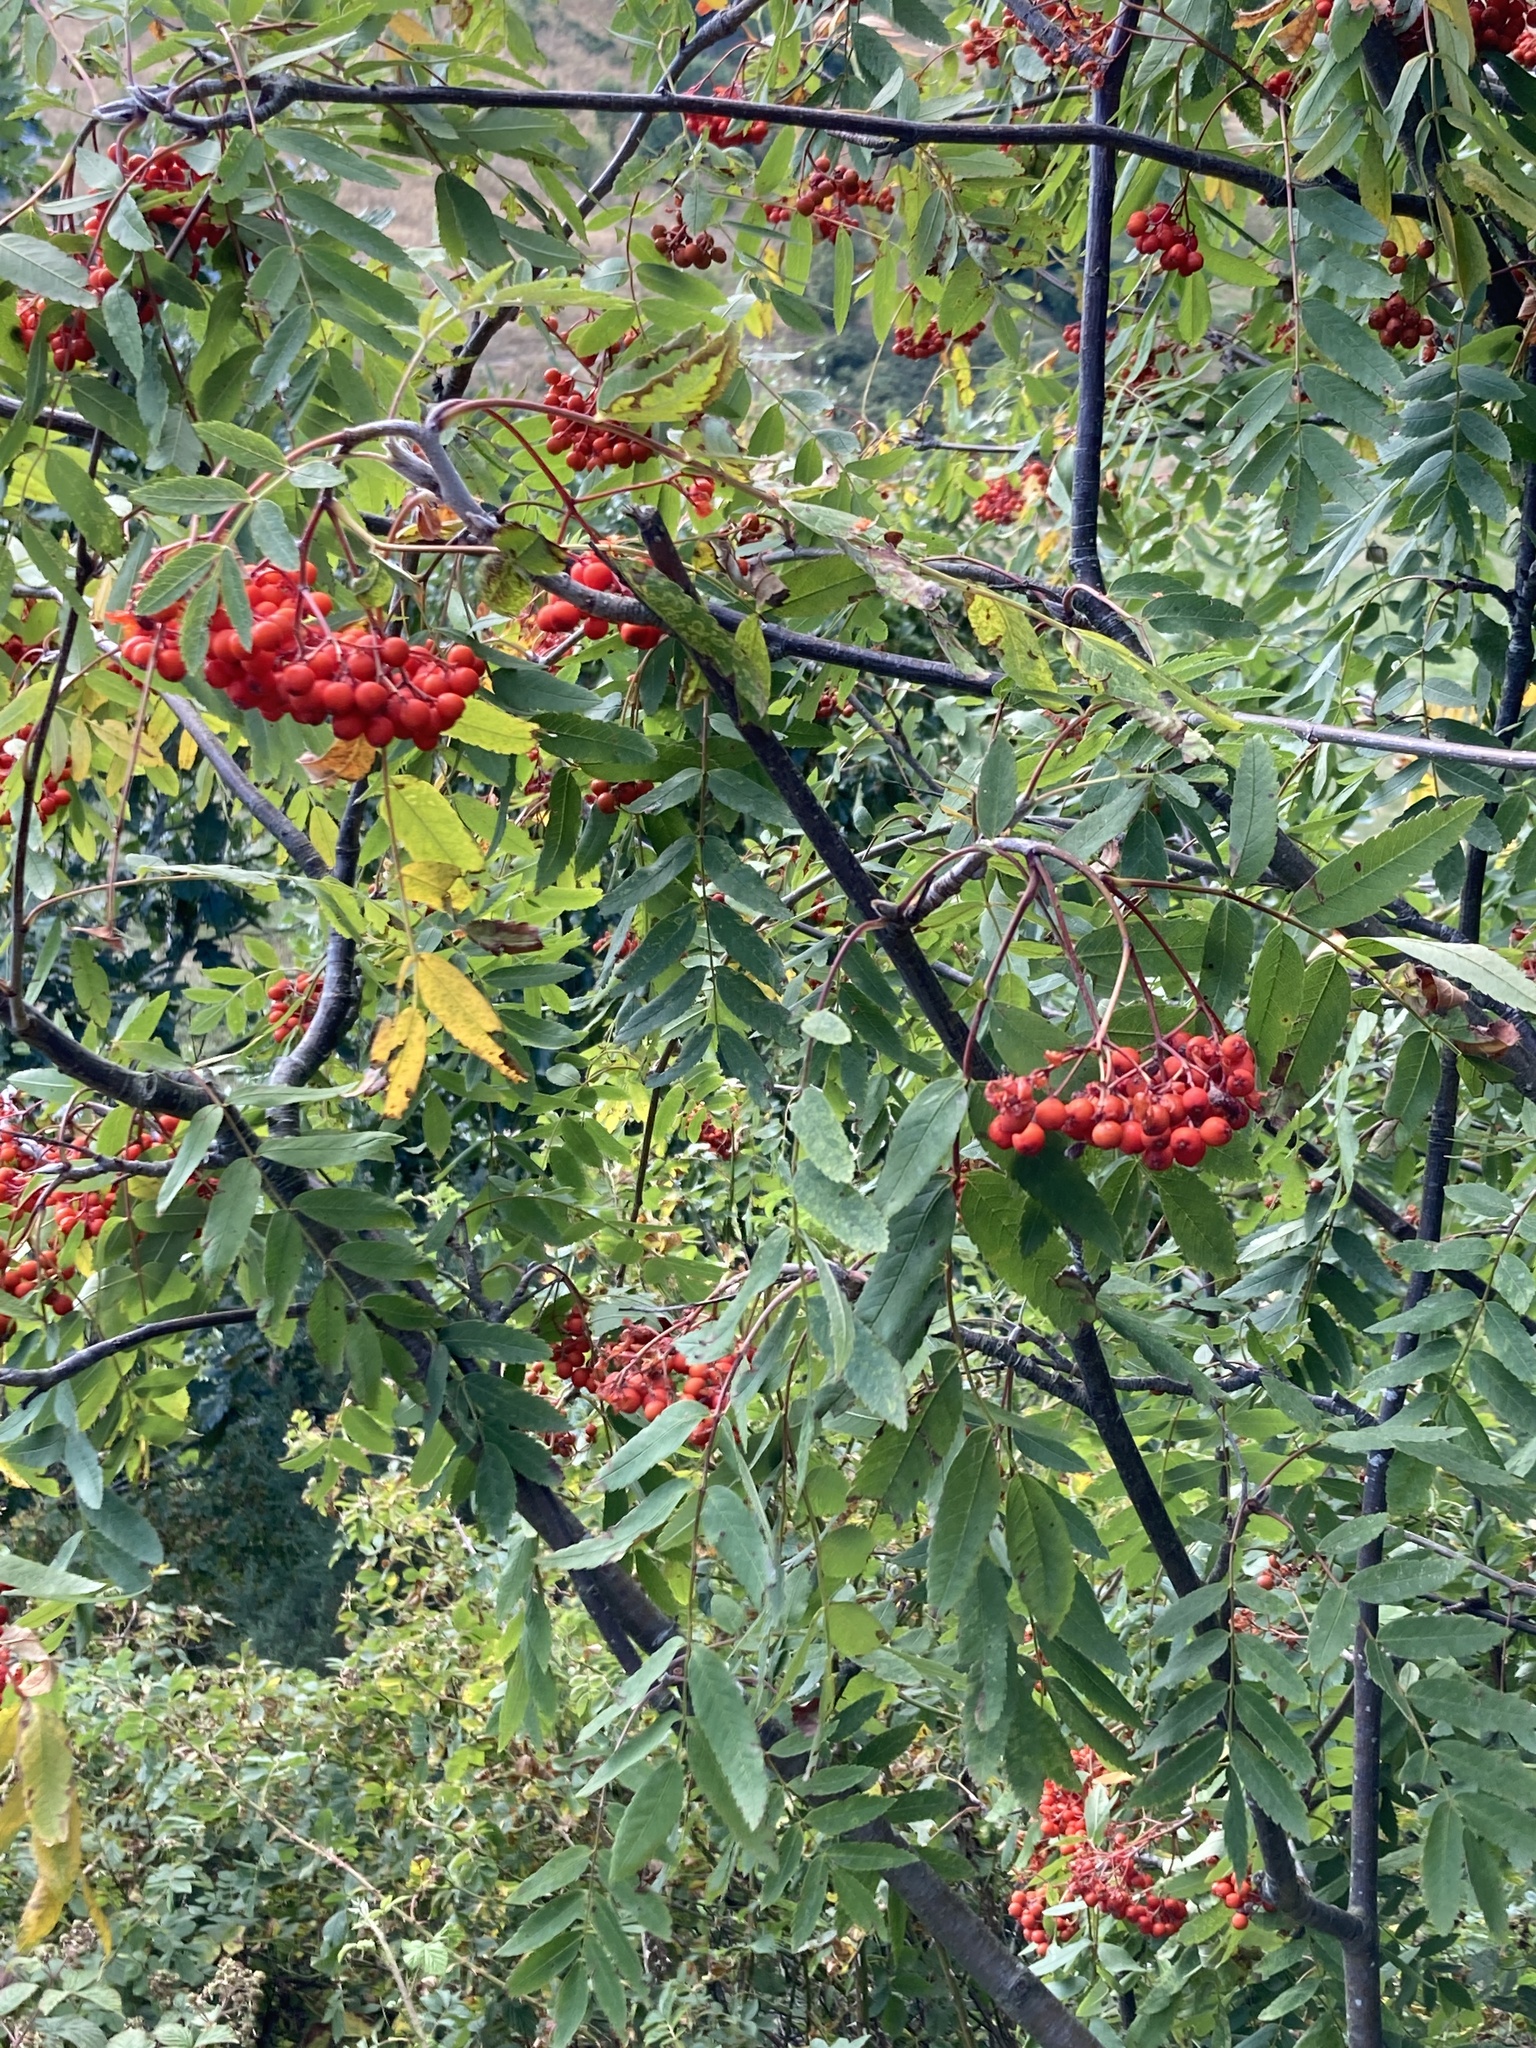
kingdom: Plantae
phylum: Tracheophyta
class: Magnoliopsida
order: Rosales
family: Rosaceae
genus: Sorbus
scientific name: Sorbus aucuparia
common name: Rowan
